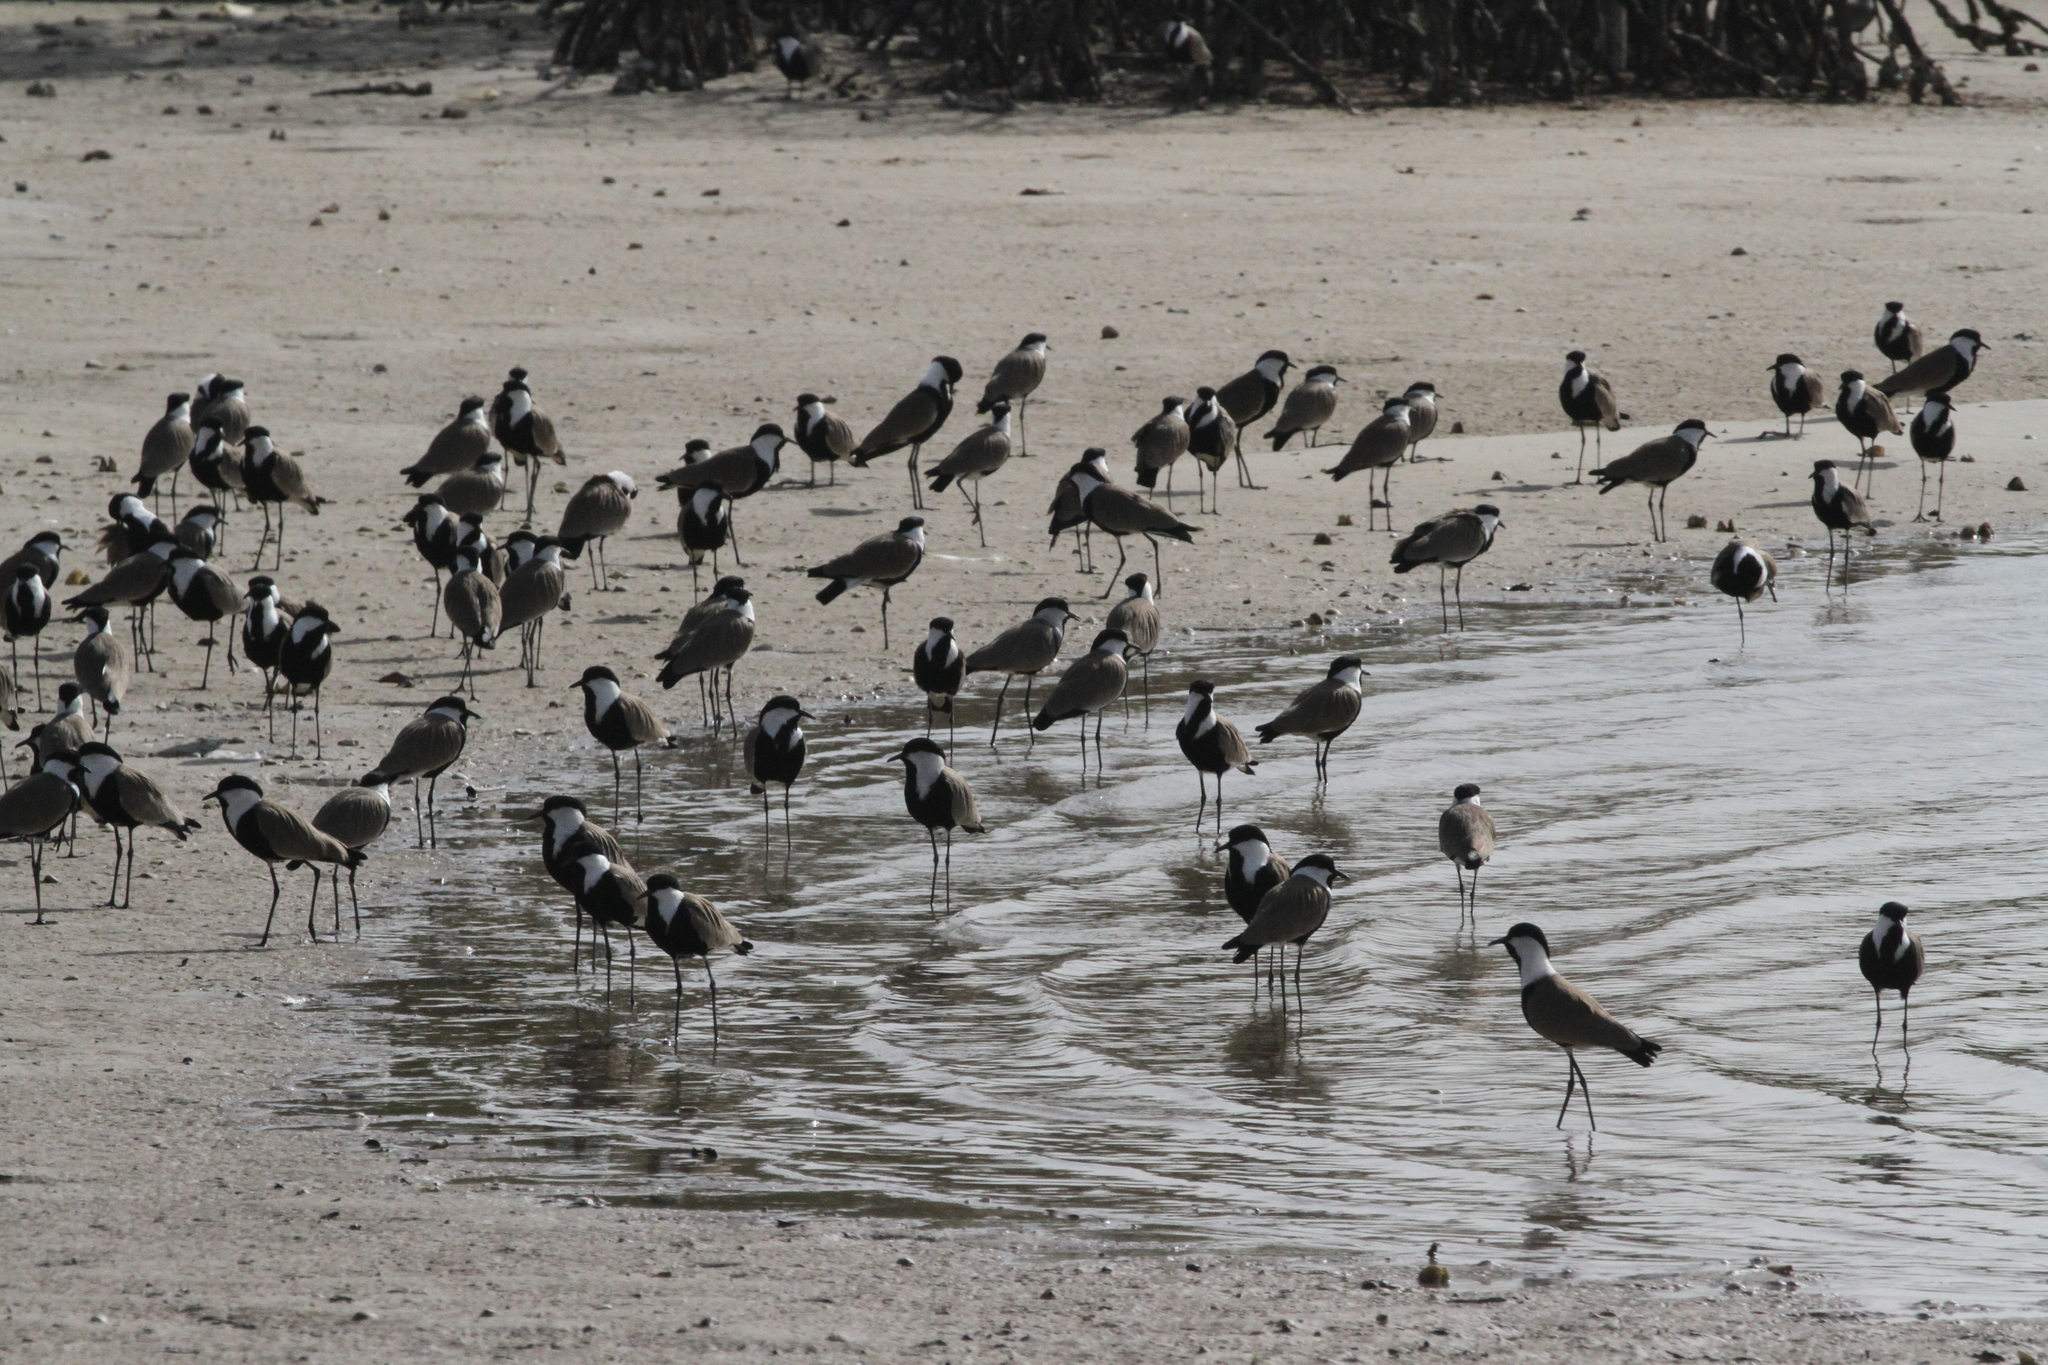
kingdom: Animalia
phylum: Chordata
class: Aves
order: Charadriiformes
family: Charadriidae
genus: Vanellus
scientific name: Vanellus spinosus
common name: Spur-winged lapwing
